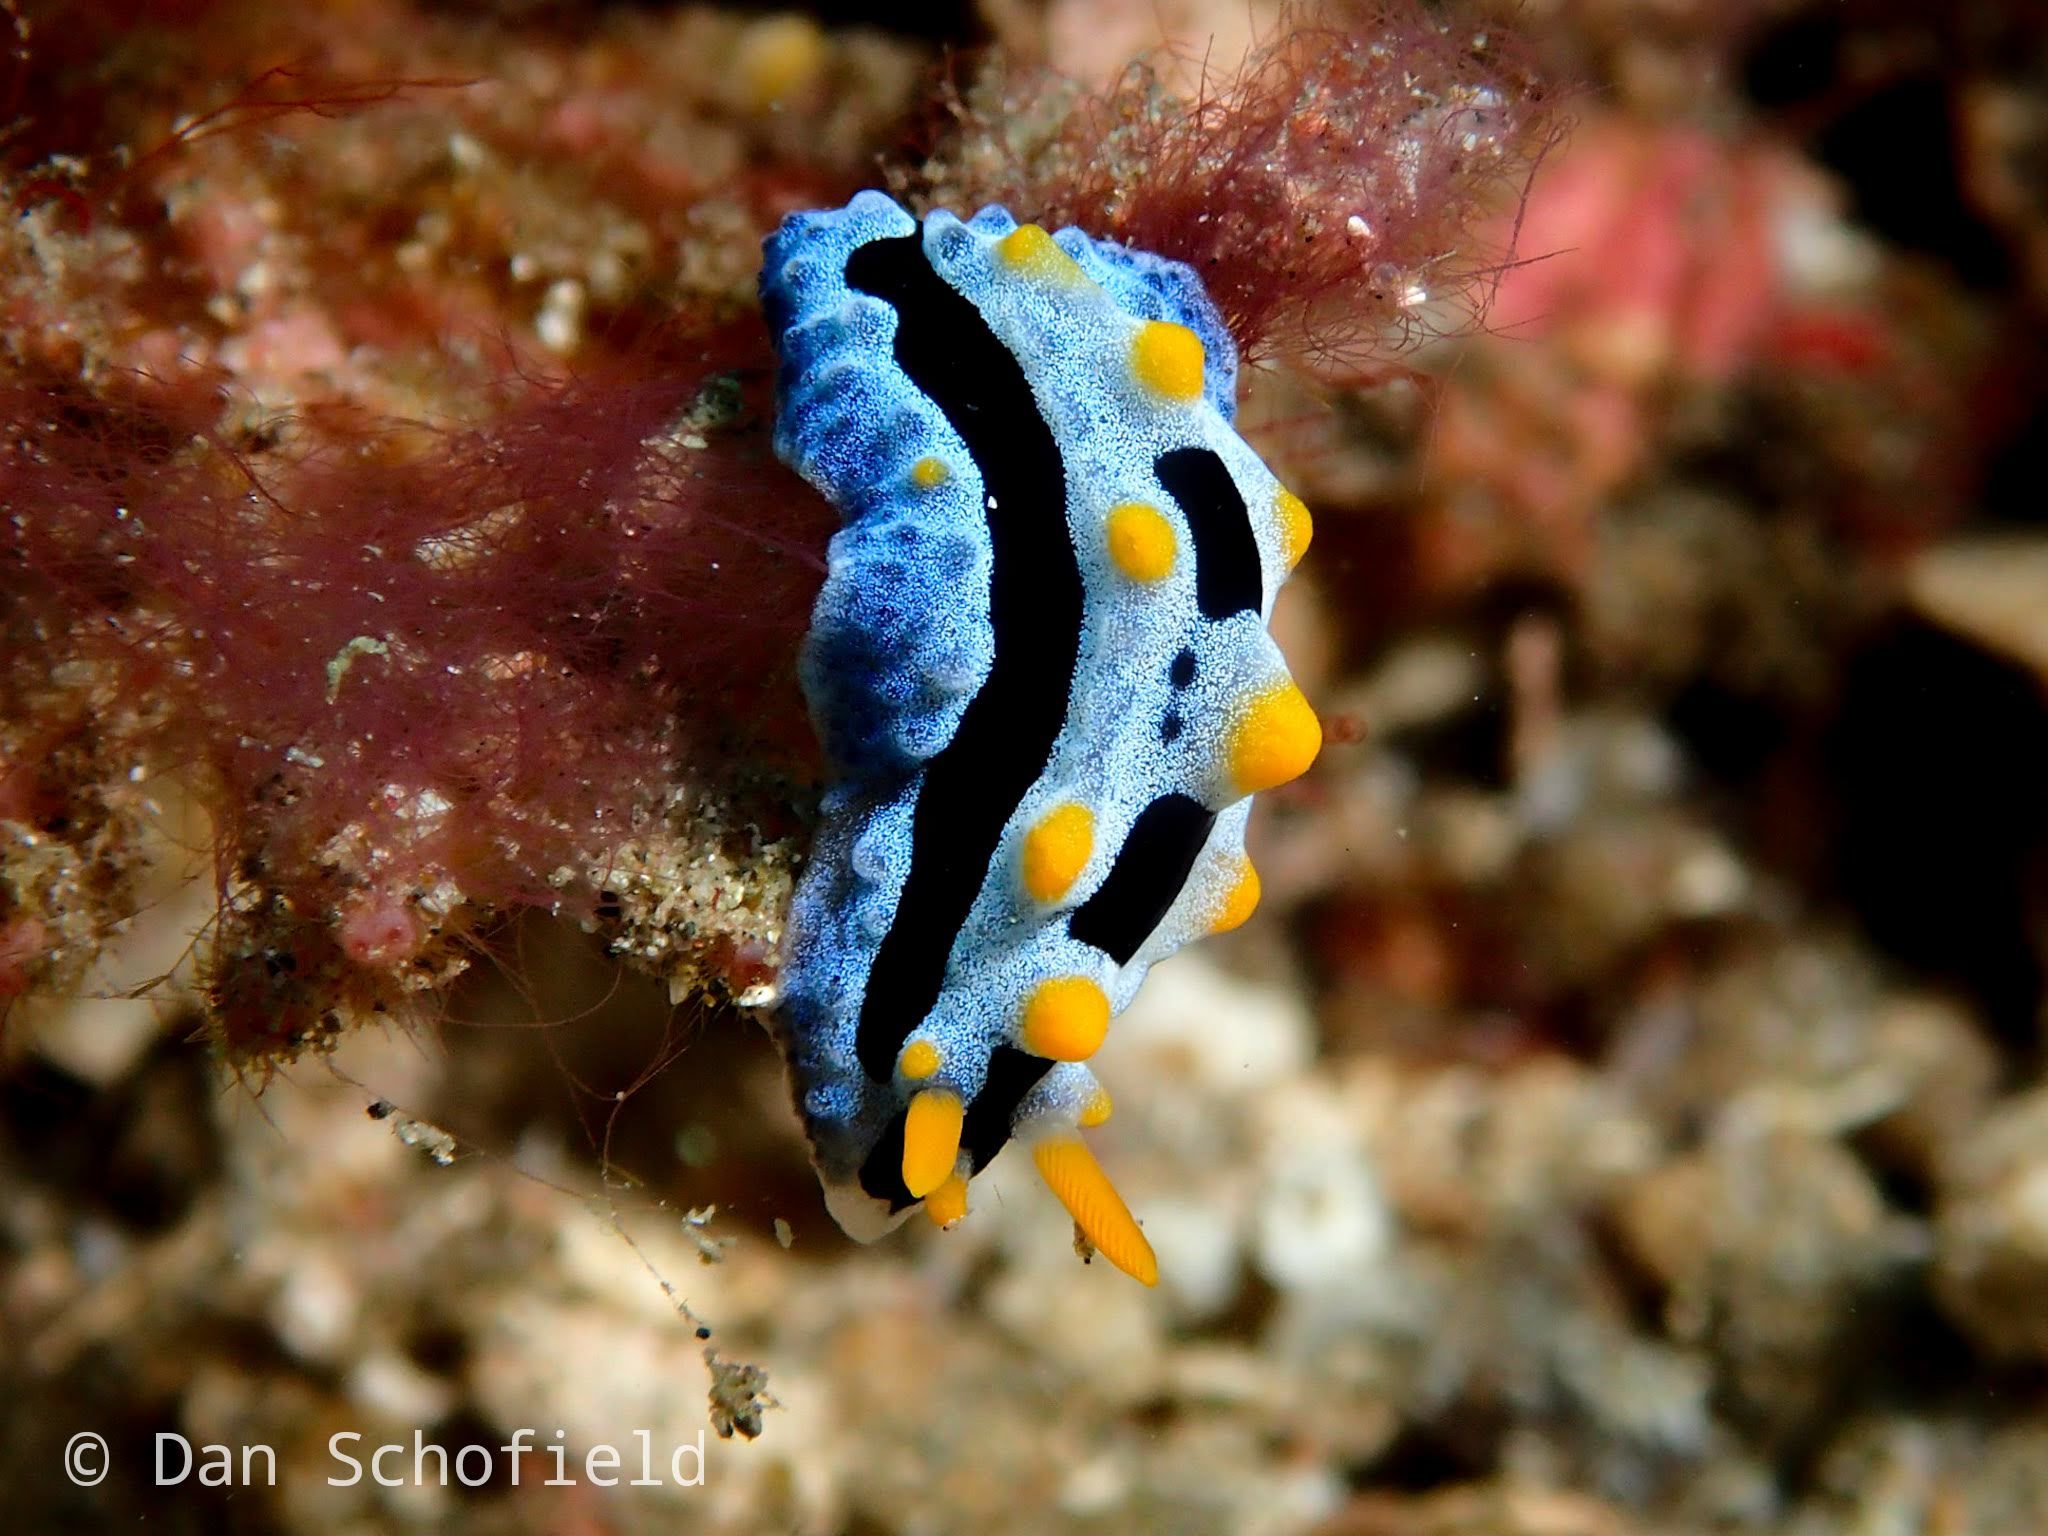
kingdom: Animalia
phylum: Mollusca
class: Gastropoda
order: Nudibranchia
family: Phyllidiidae
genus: Phyllidia
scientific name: Phyllidia coelestis
